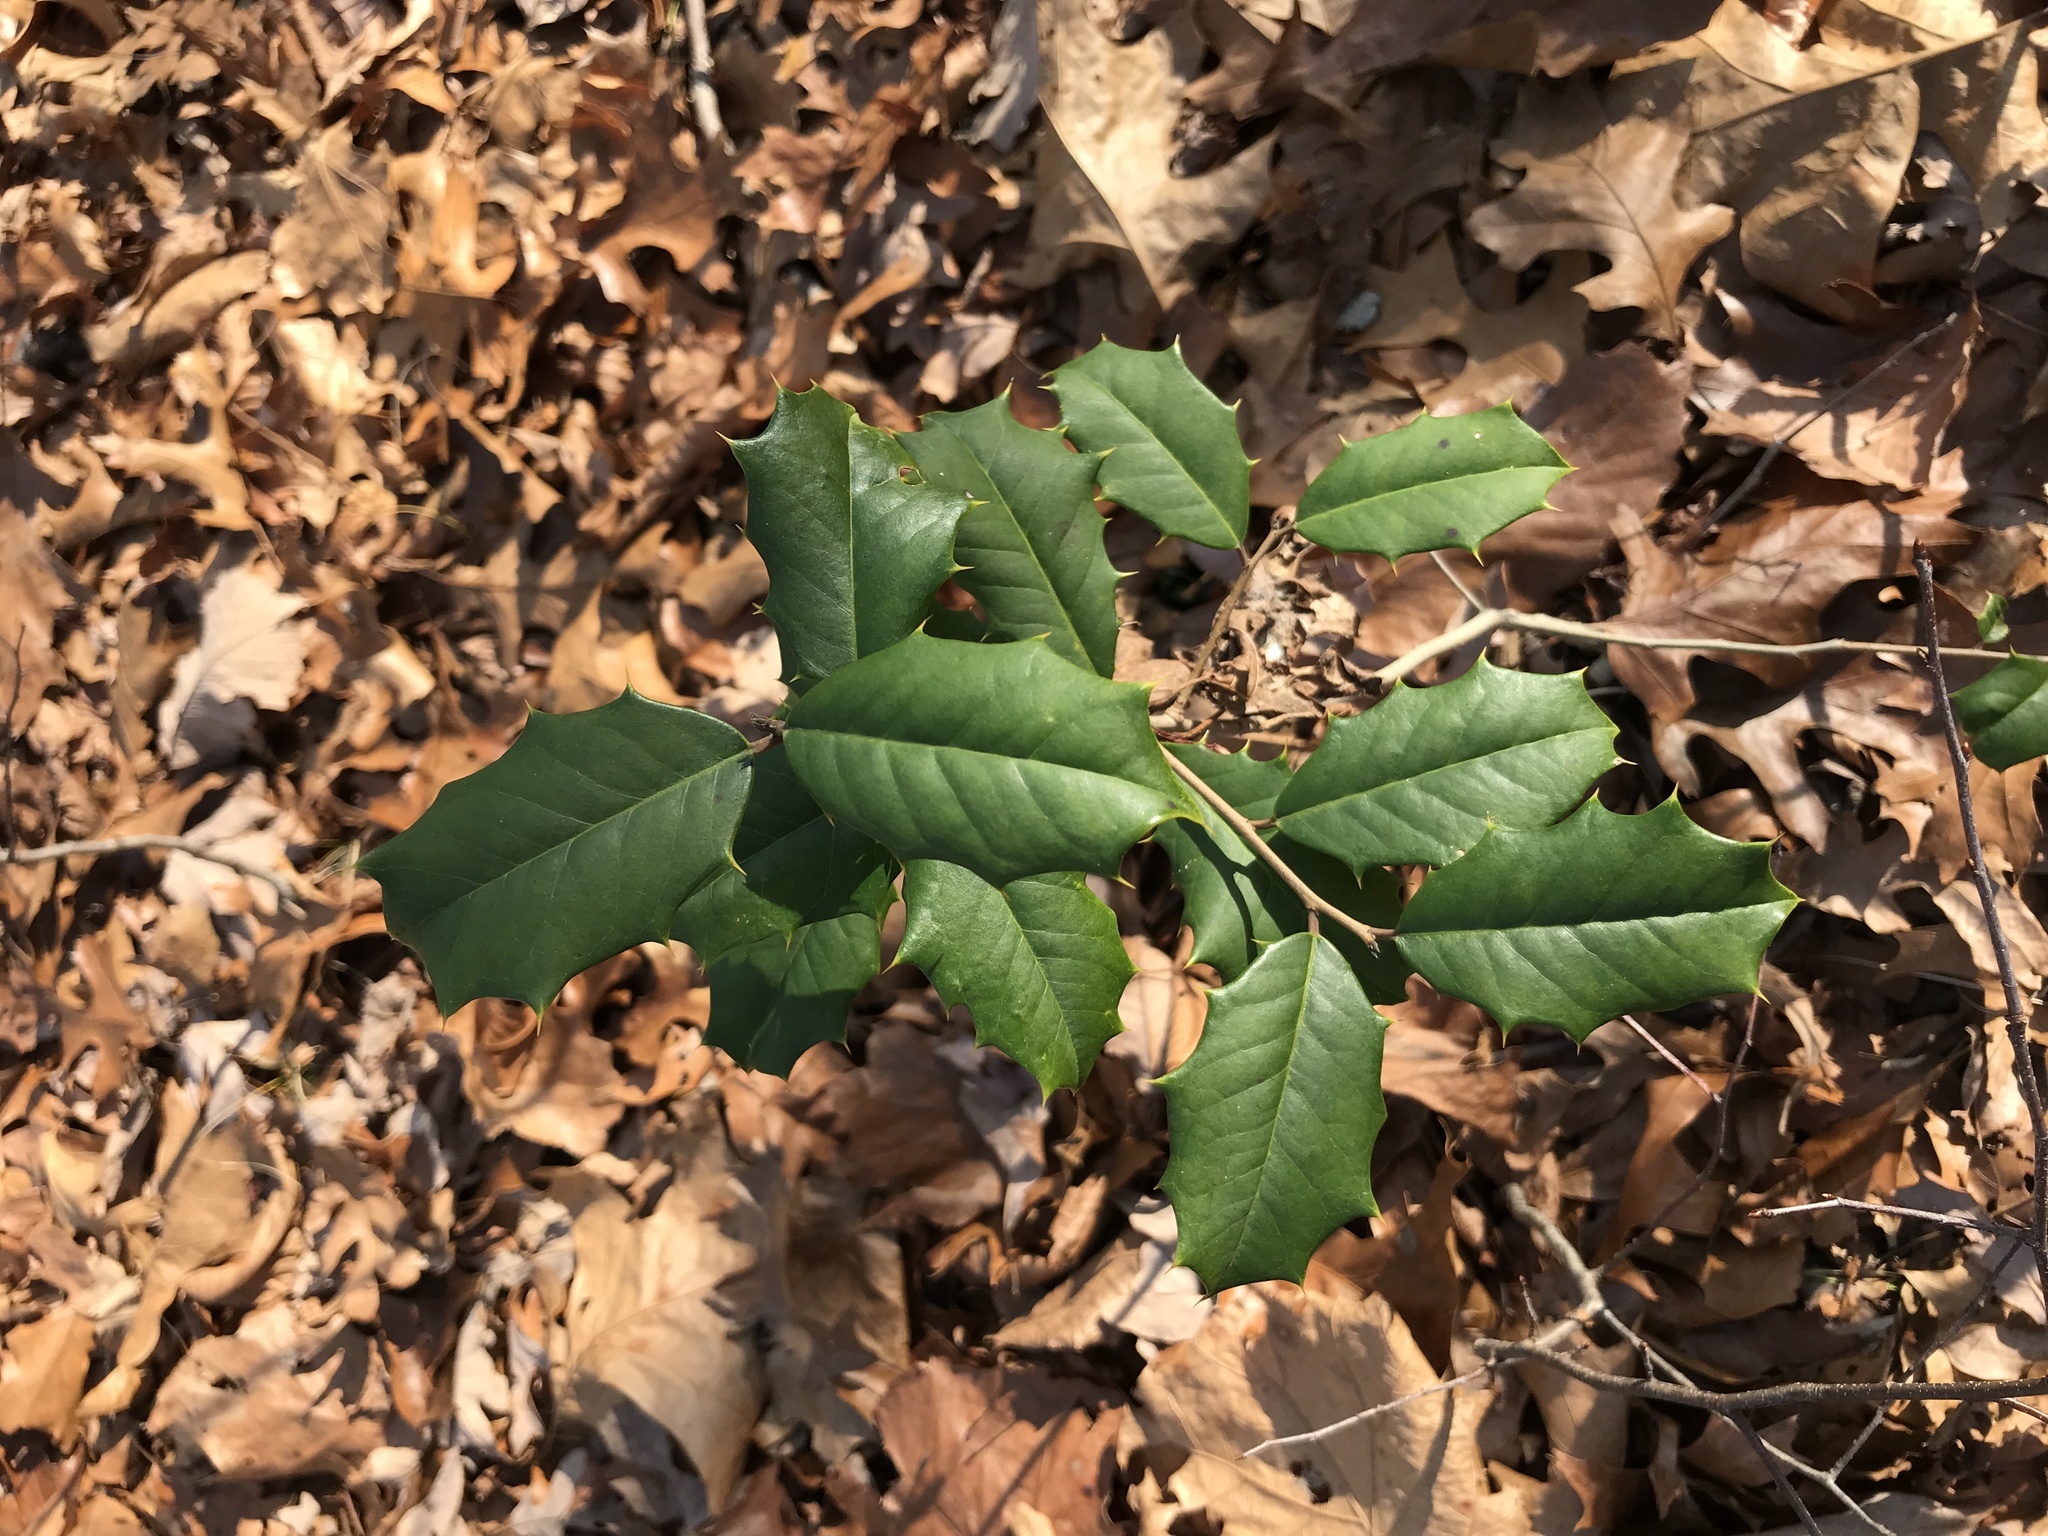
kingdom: Plantae
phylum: Tracheophyta
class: Magnoliopsida
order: Aquifoliales
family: Aquifoliaceae
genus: Ilex
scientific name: Ilex opaca
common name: American holly
